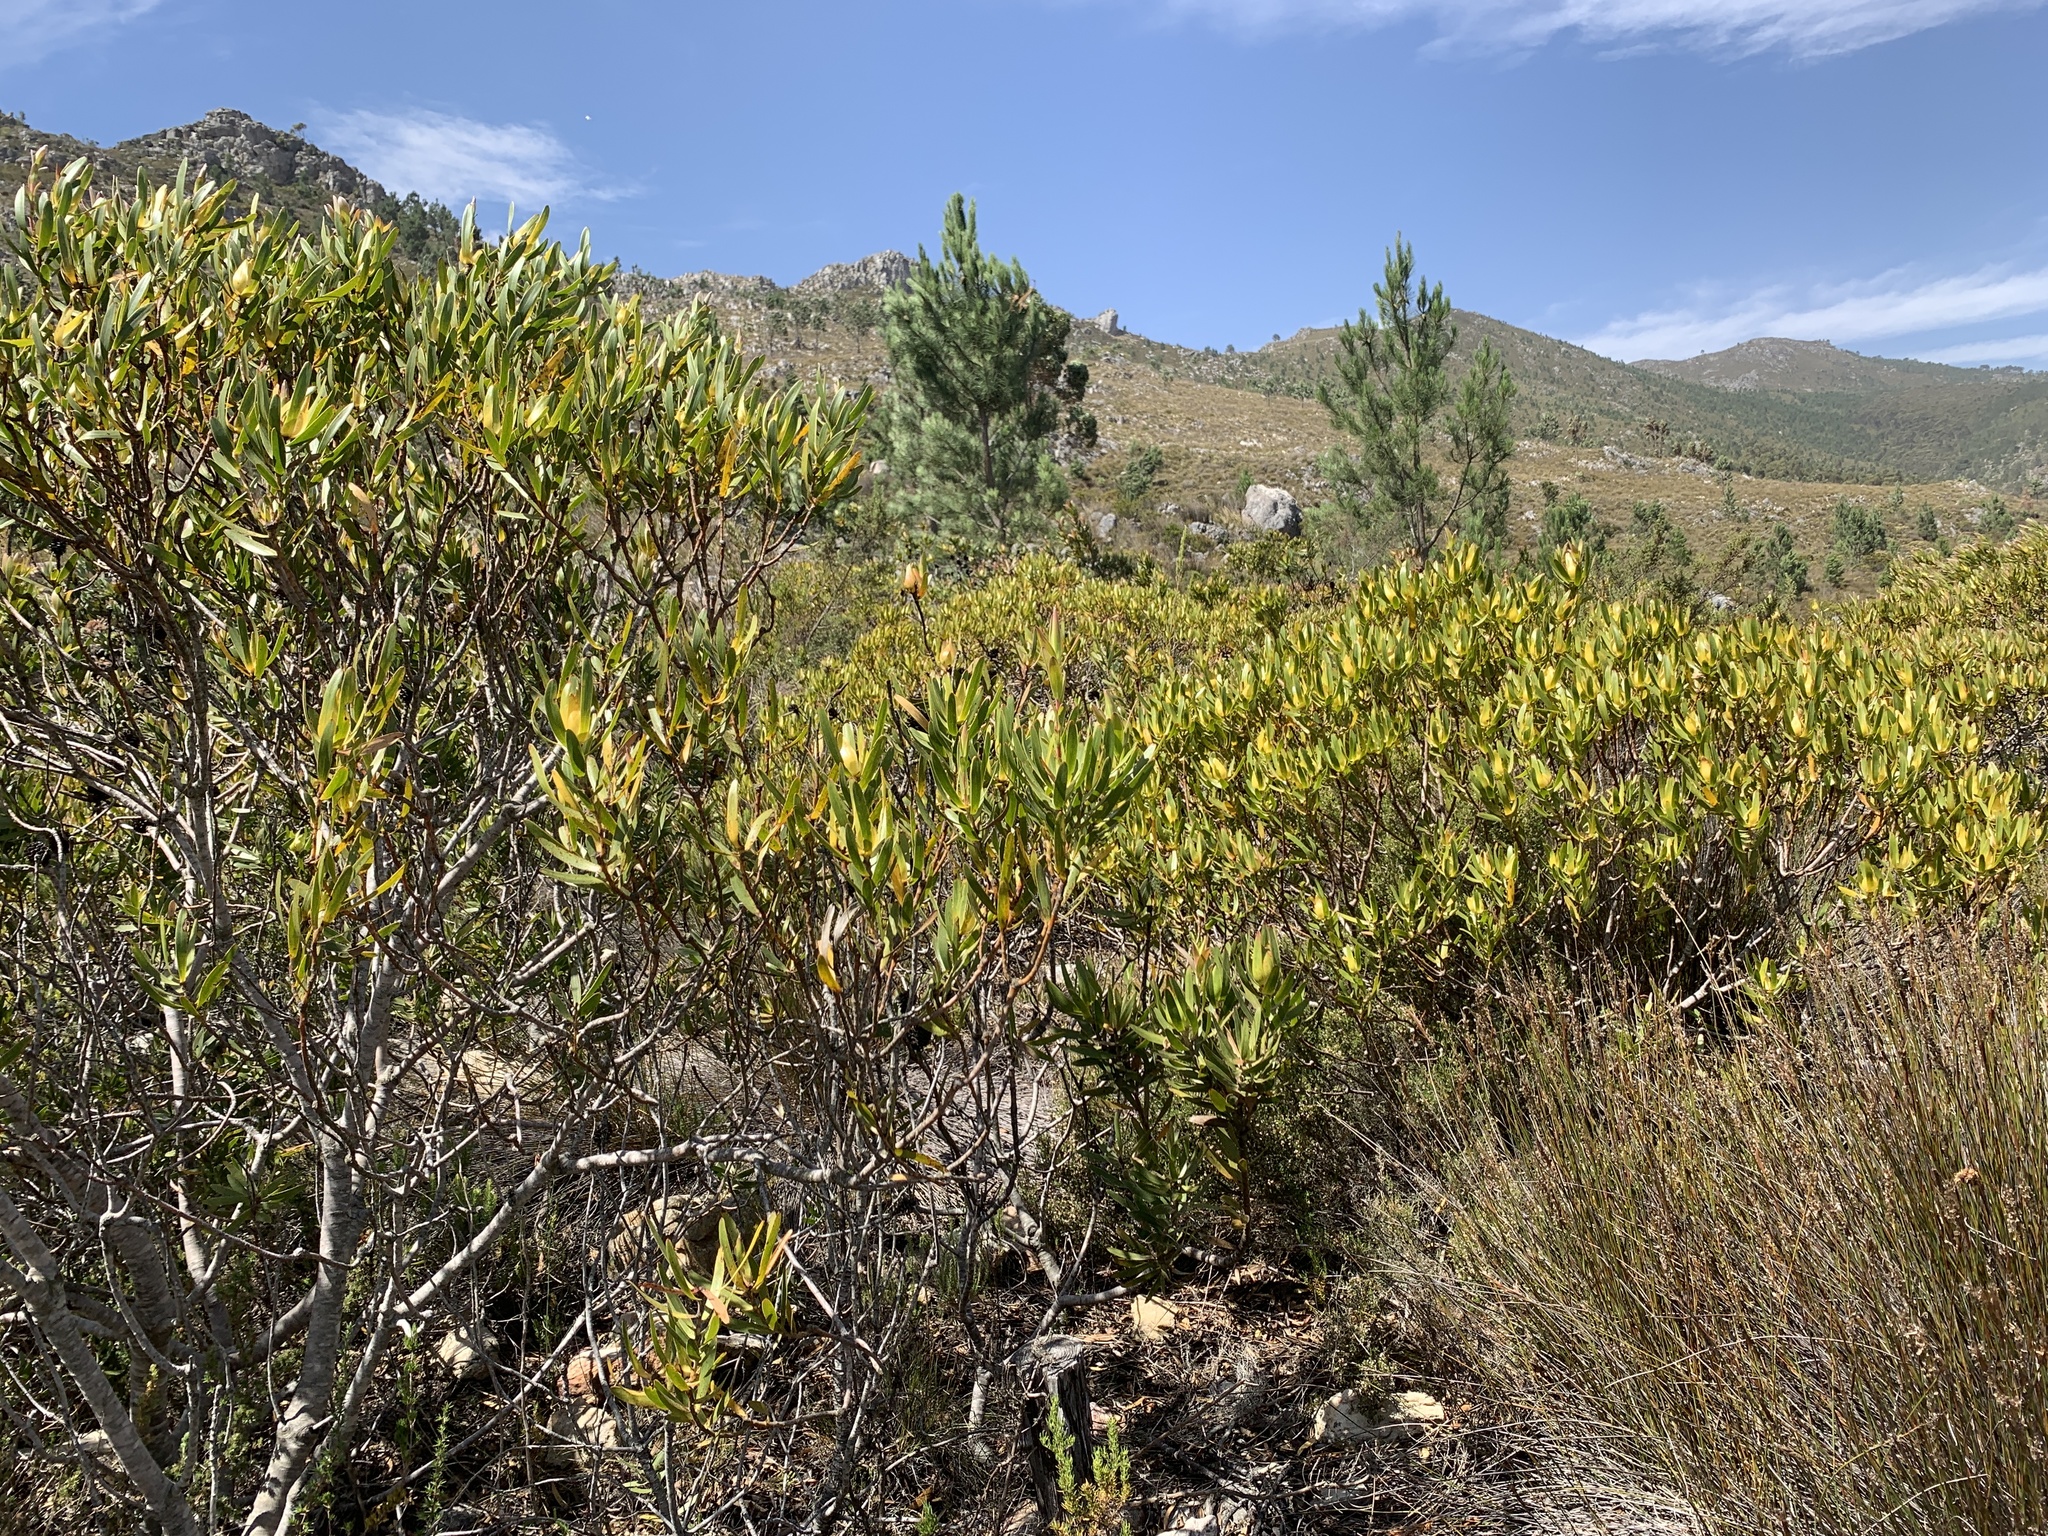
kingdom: Plantae
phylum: Tracheophyta
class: Magnoliopsida
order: Proteales
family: Proteaceae
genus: Leucadendron
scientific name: Leucadendron laureolum
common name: Golden sunshinebush
